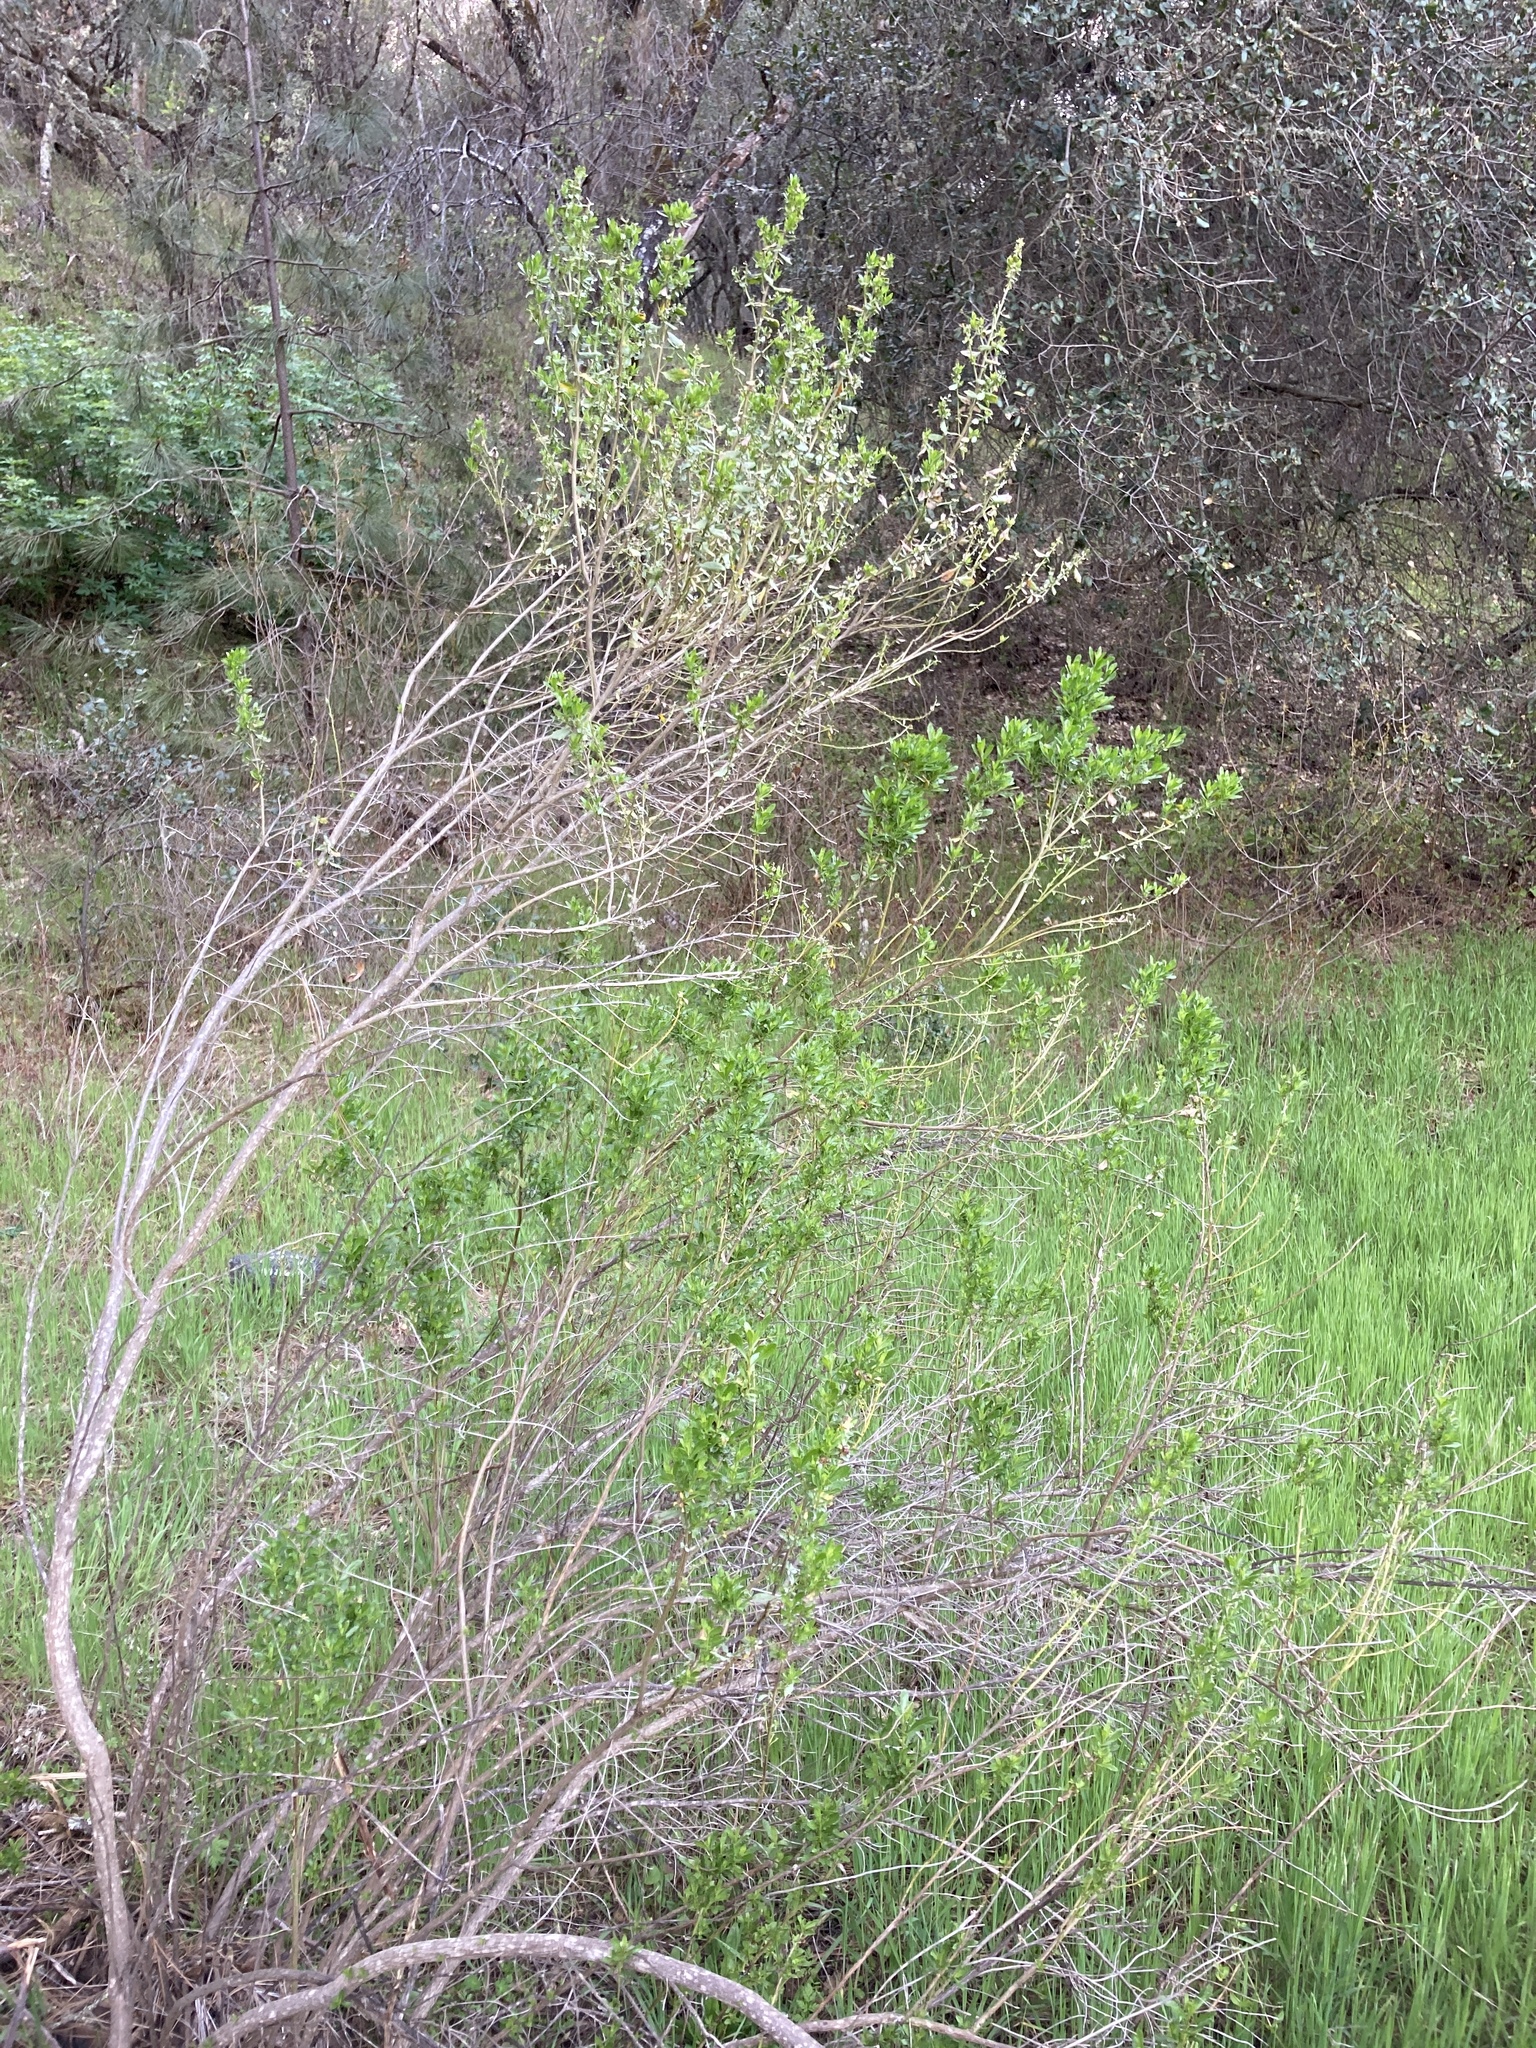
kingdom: Plantae
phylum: Tracheophyta
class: Magnoliopsida
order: Asterales
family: Asteraceae
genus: Baccharis
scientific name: Baccharis pilularis
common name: Coyotebrush
